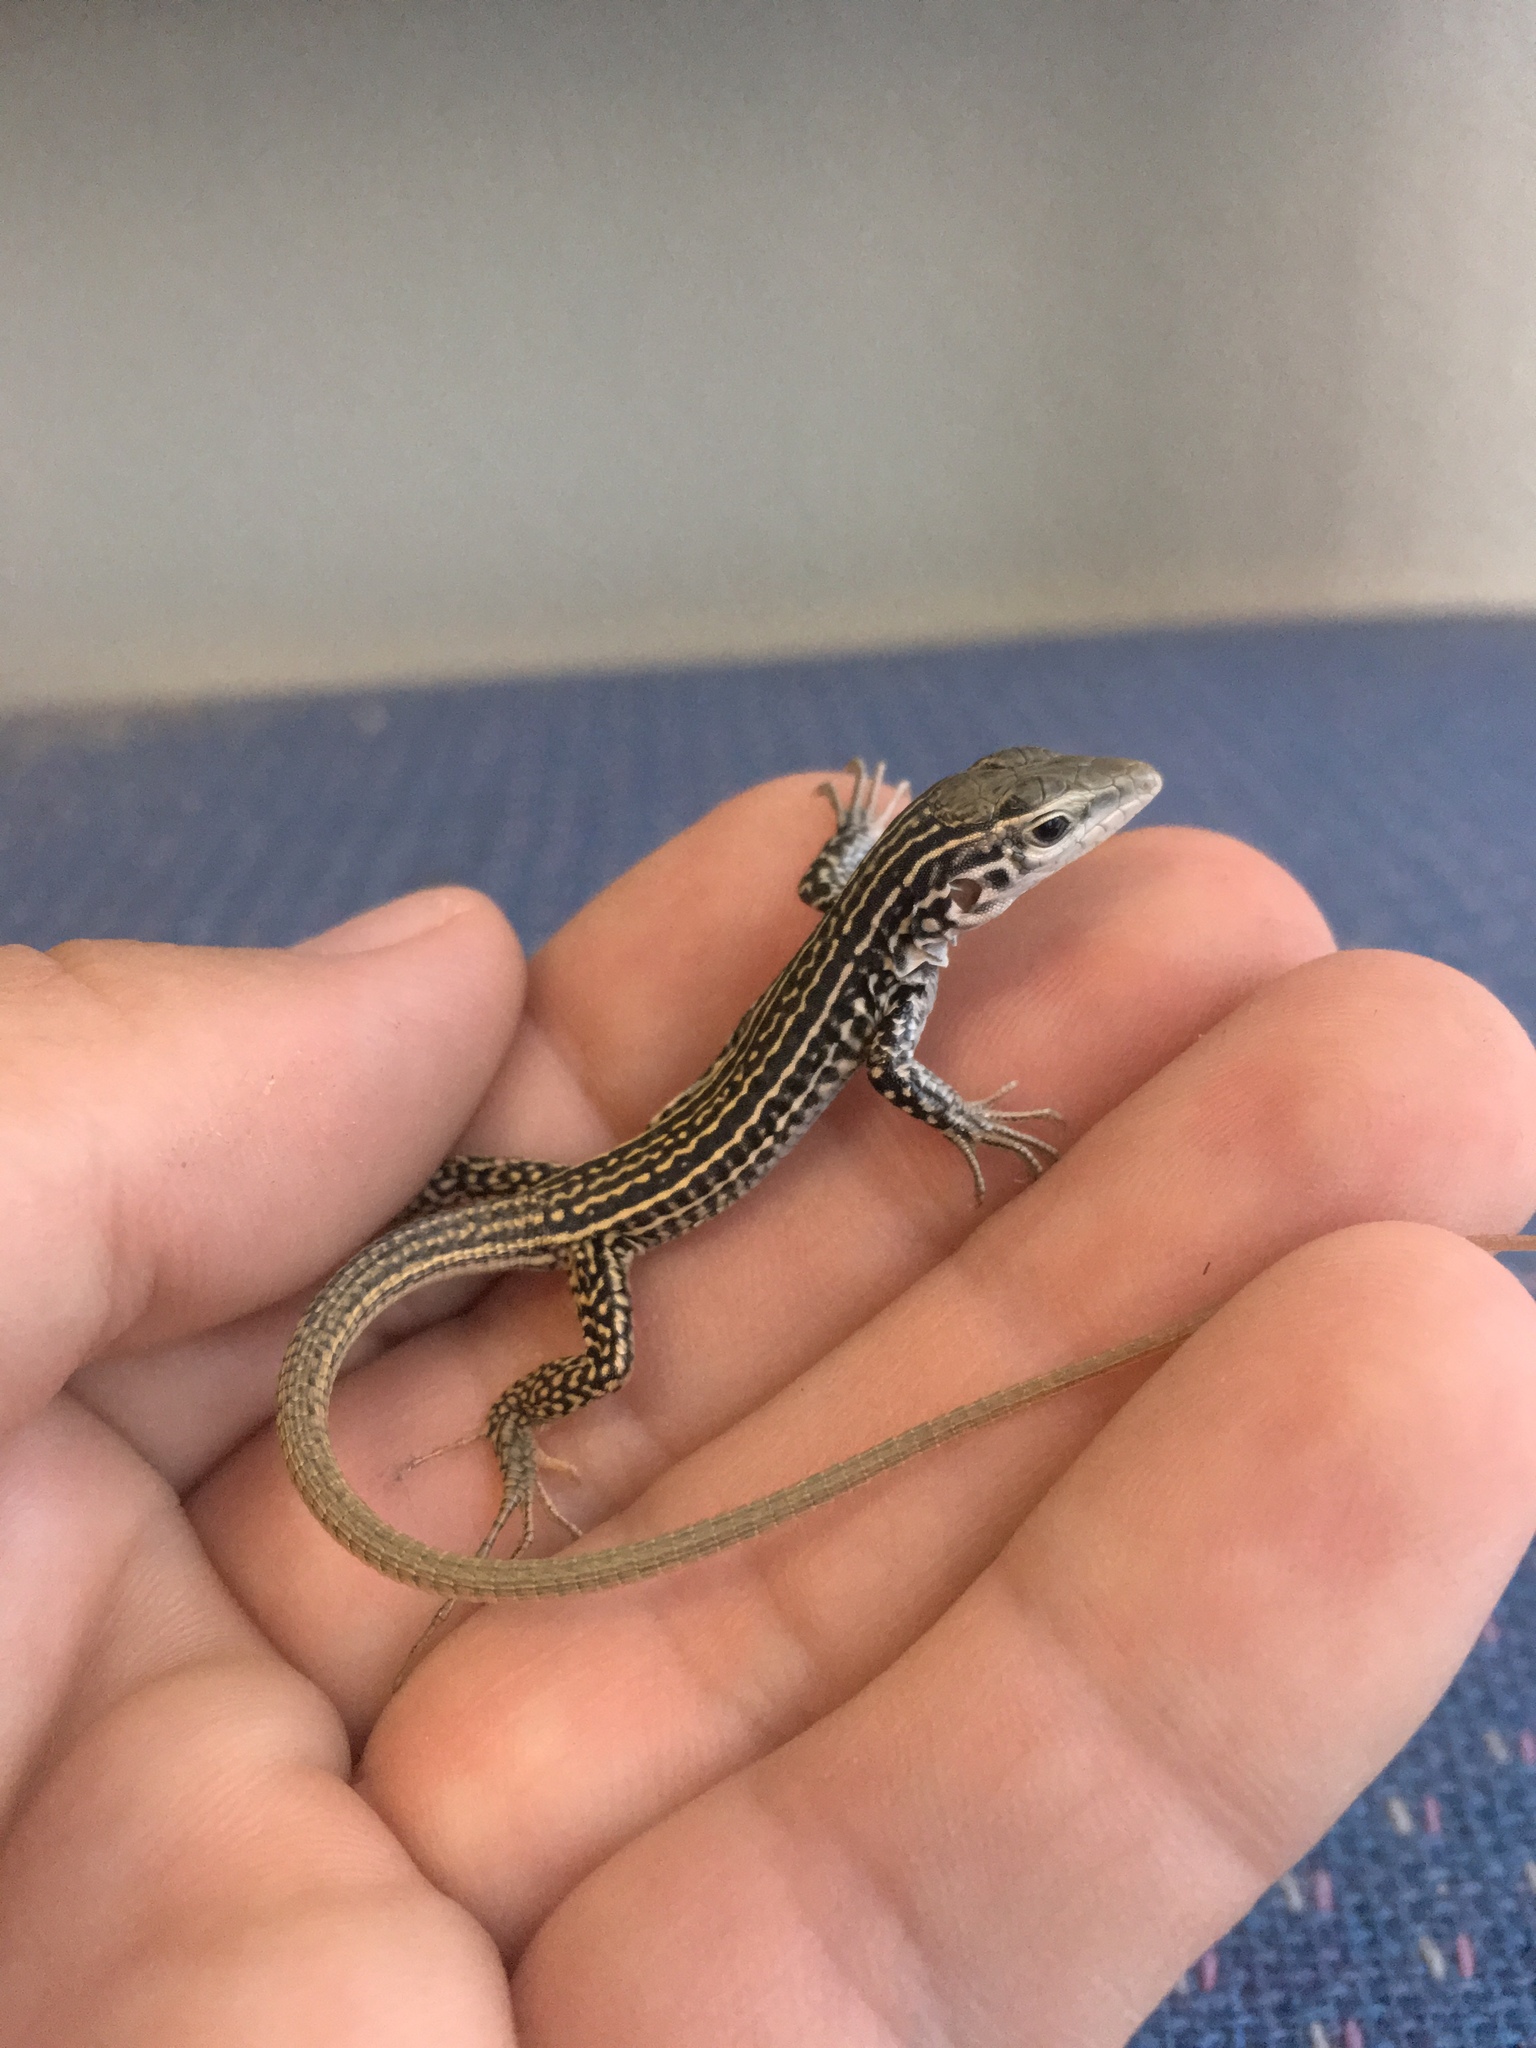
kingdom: Animalia
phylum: Chordata
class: Squamata
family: Teiidae
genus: Aspidoscelis
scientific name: Aspidoscelis tesselatus
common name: Common checkered whiptail [tesselata]
